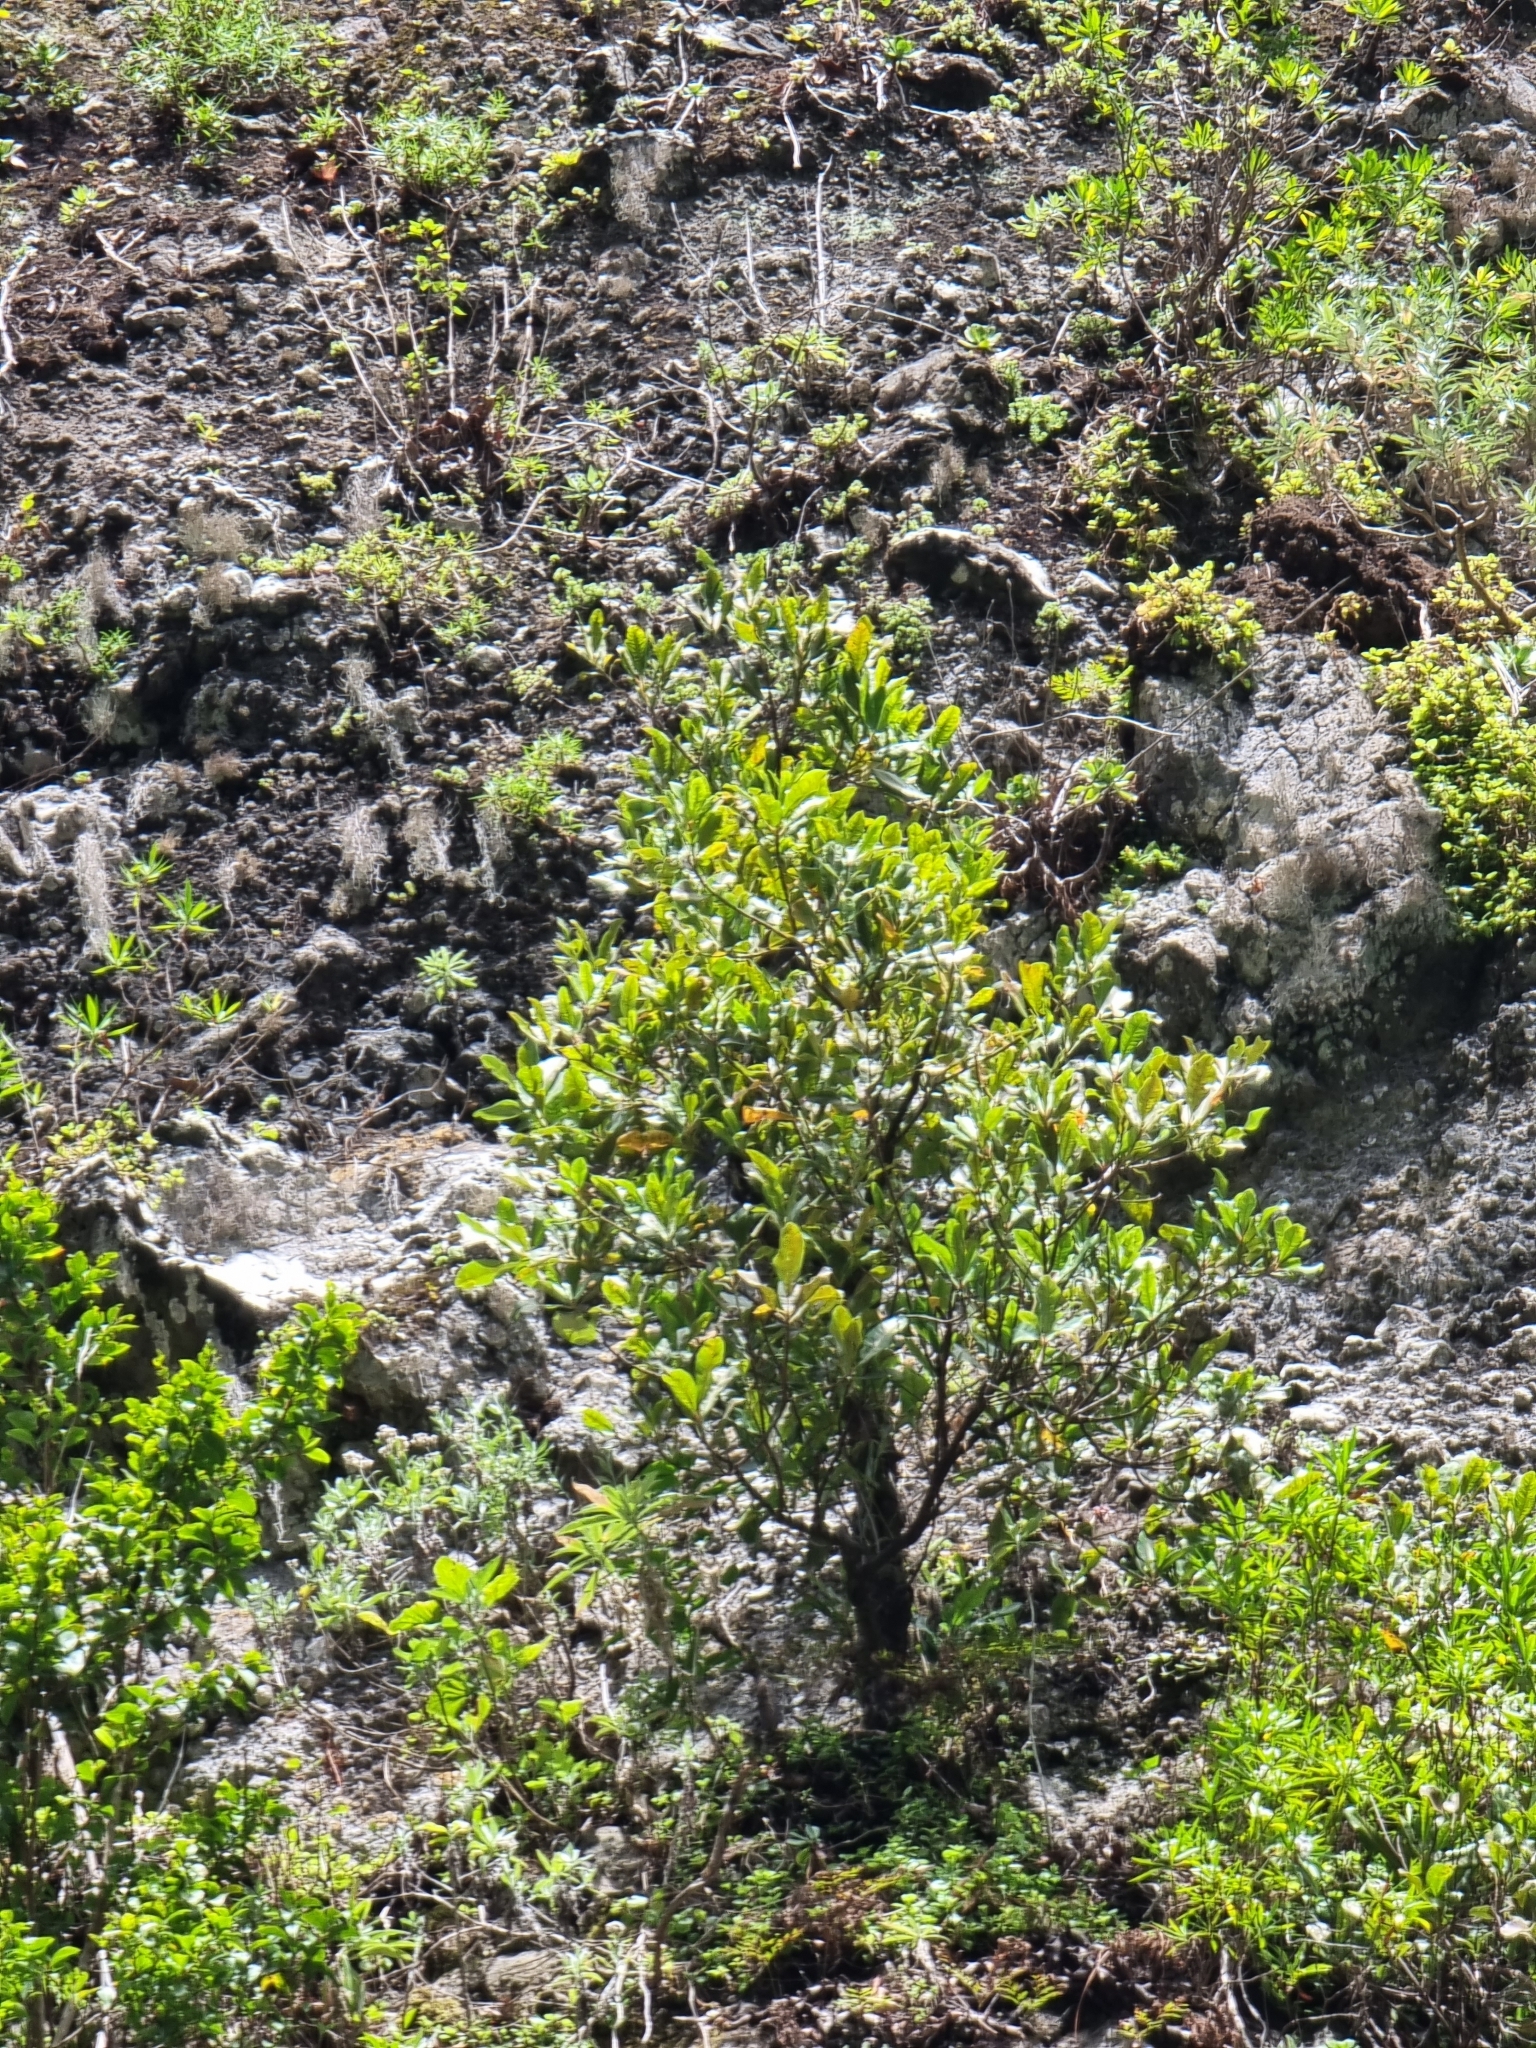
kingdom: Plantae
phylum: Tracheophyta
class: Magnoliopsida
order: Ericales
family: Sapotaceae
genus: Sideroxylon
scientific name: Sideroxylon mirmulans
